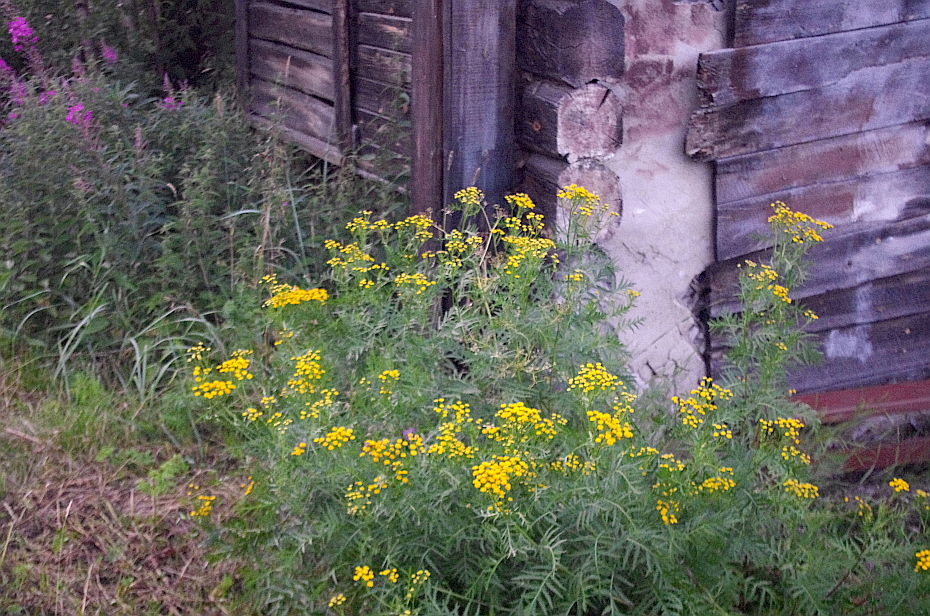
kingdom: Plantae
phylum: Tracheophyta
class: Magnoliopsida
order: Asterales
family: Asteraceae
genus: Tanacetum
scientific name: Tanacetum vulgare
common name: Common tansy
